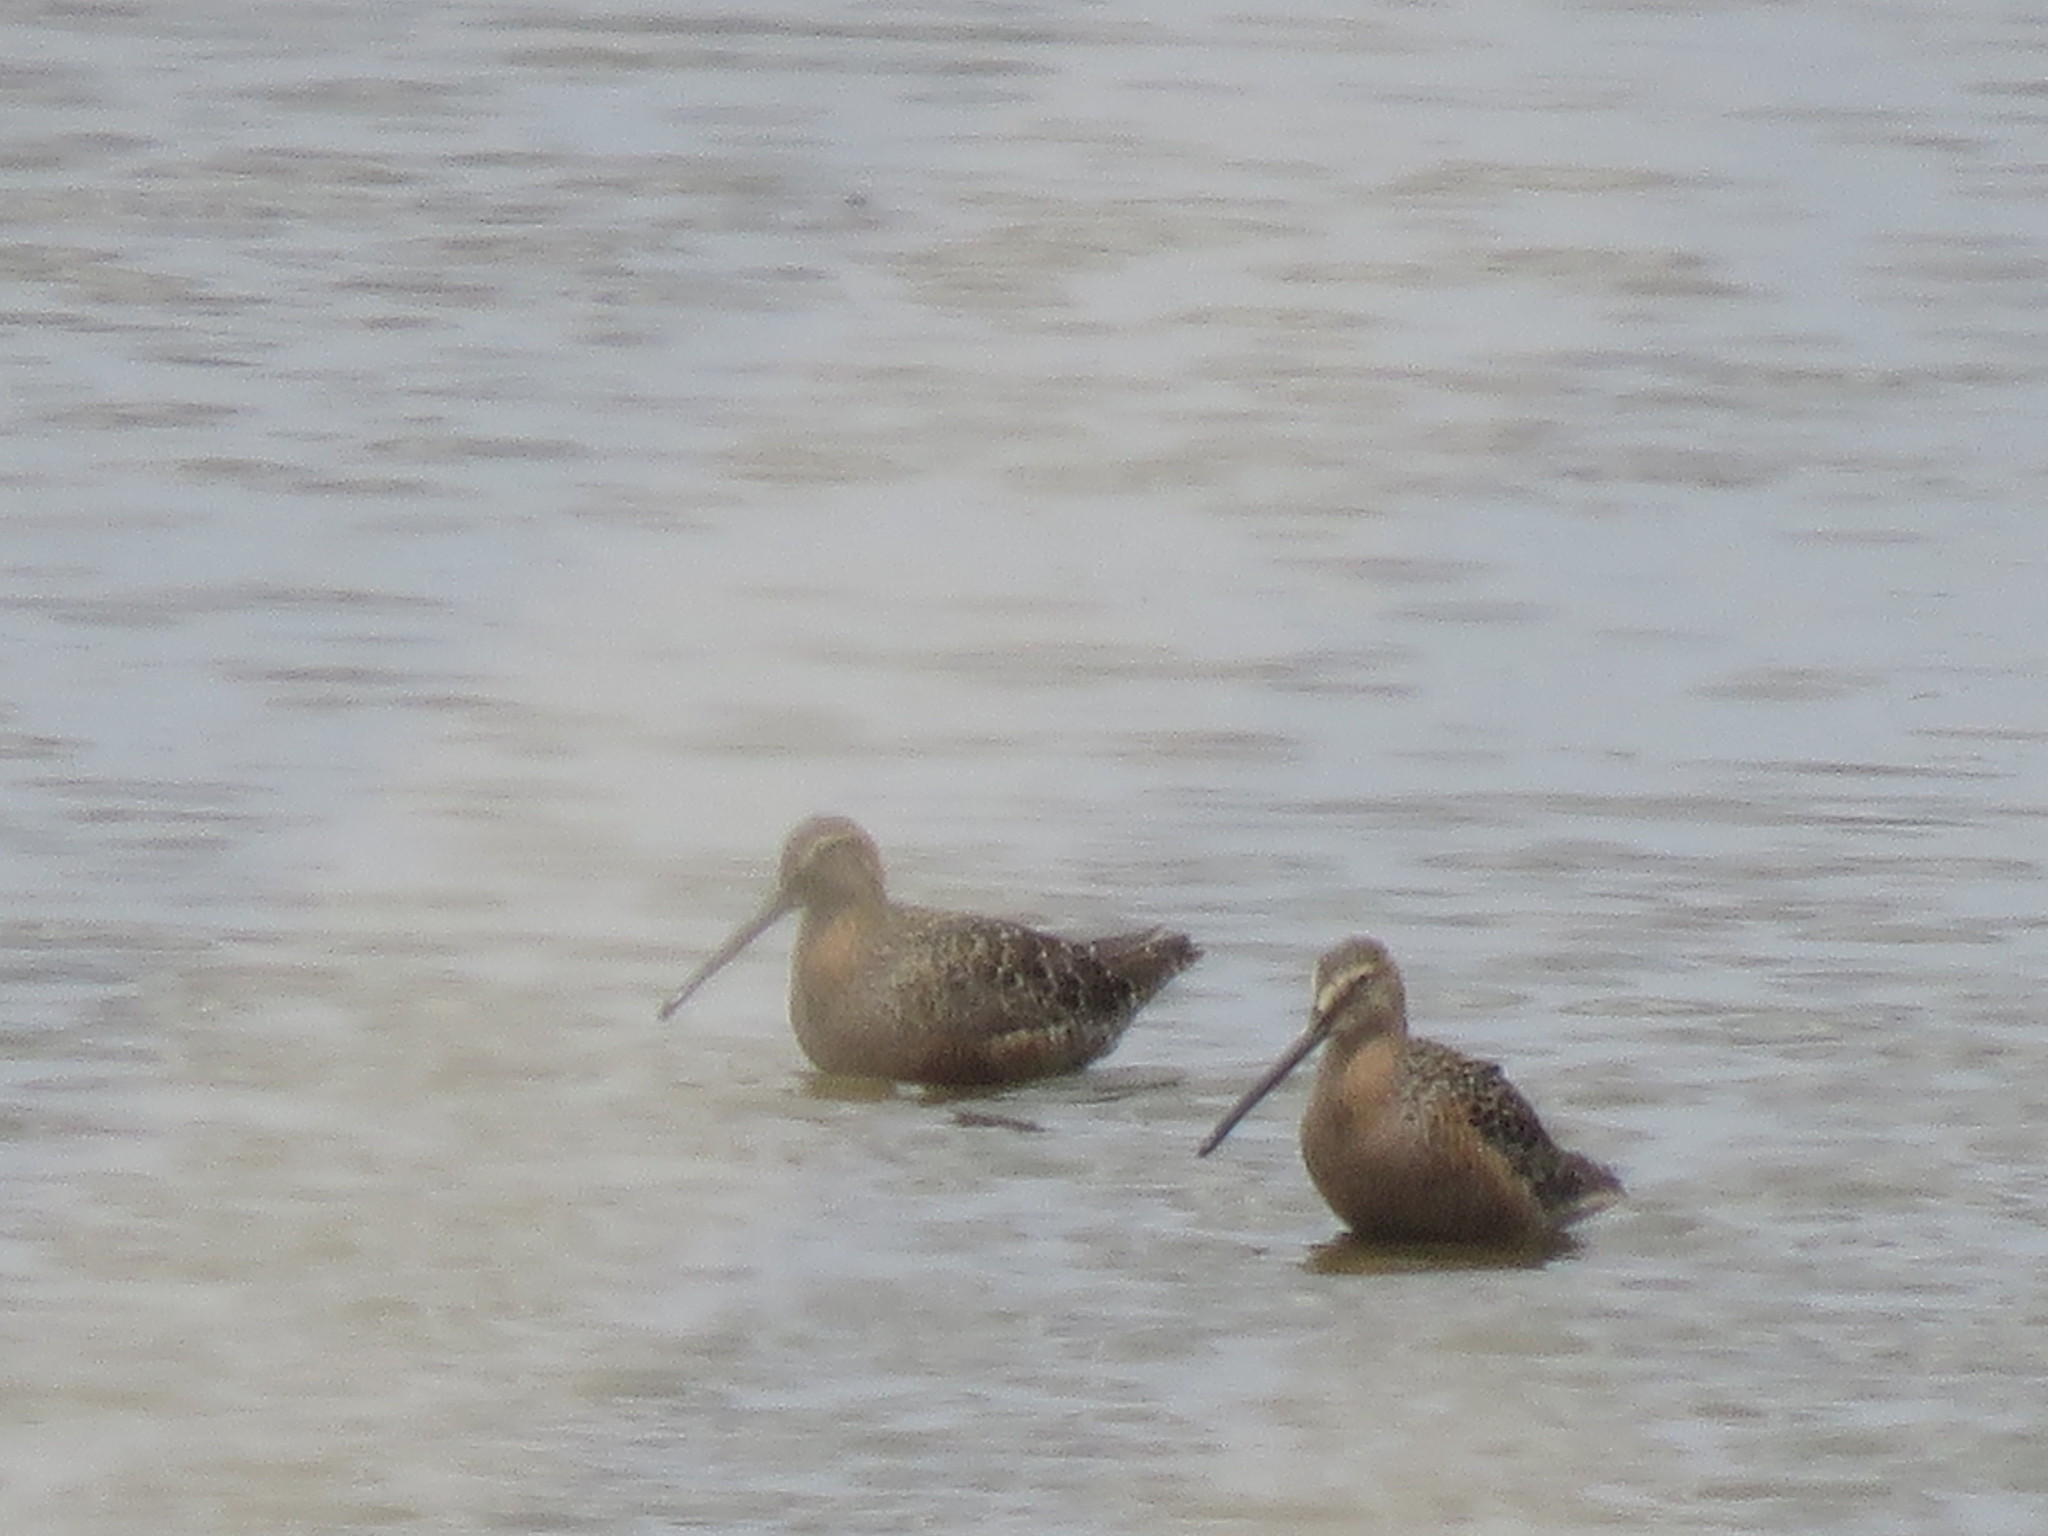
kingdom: Animalia
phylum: Chordata
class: Aves
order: Charadriiformes
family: Scolopacidae
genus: Limnodromus
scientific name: Limnodromus scolopaceus
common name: Long-billed dowitcher
